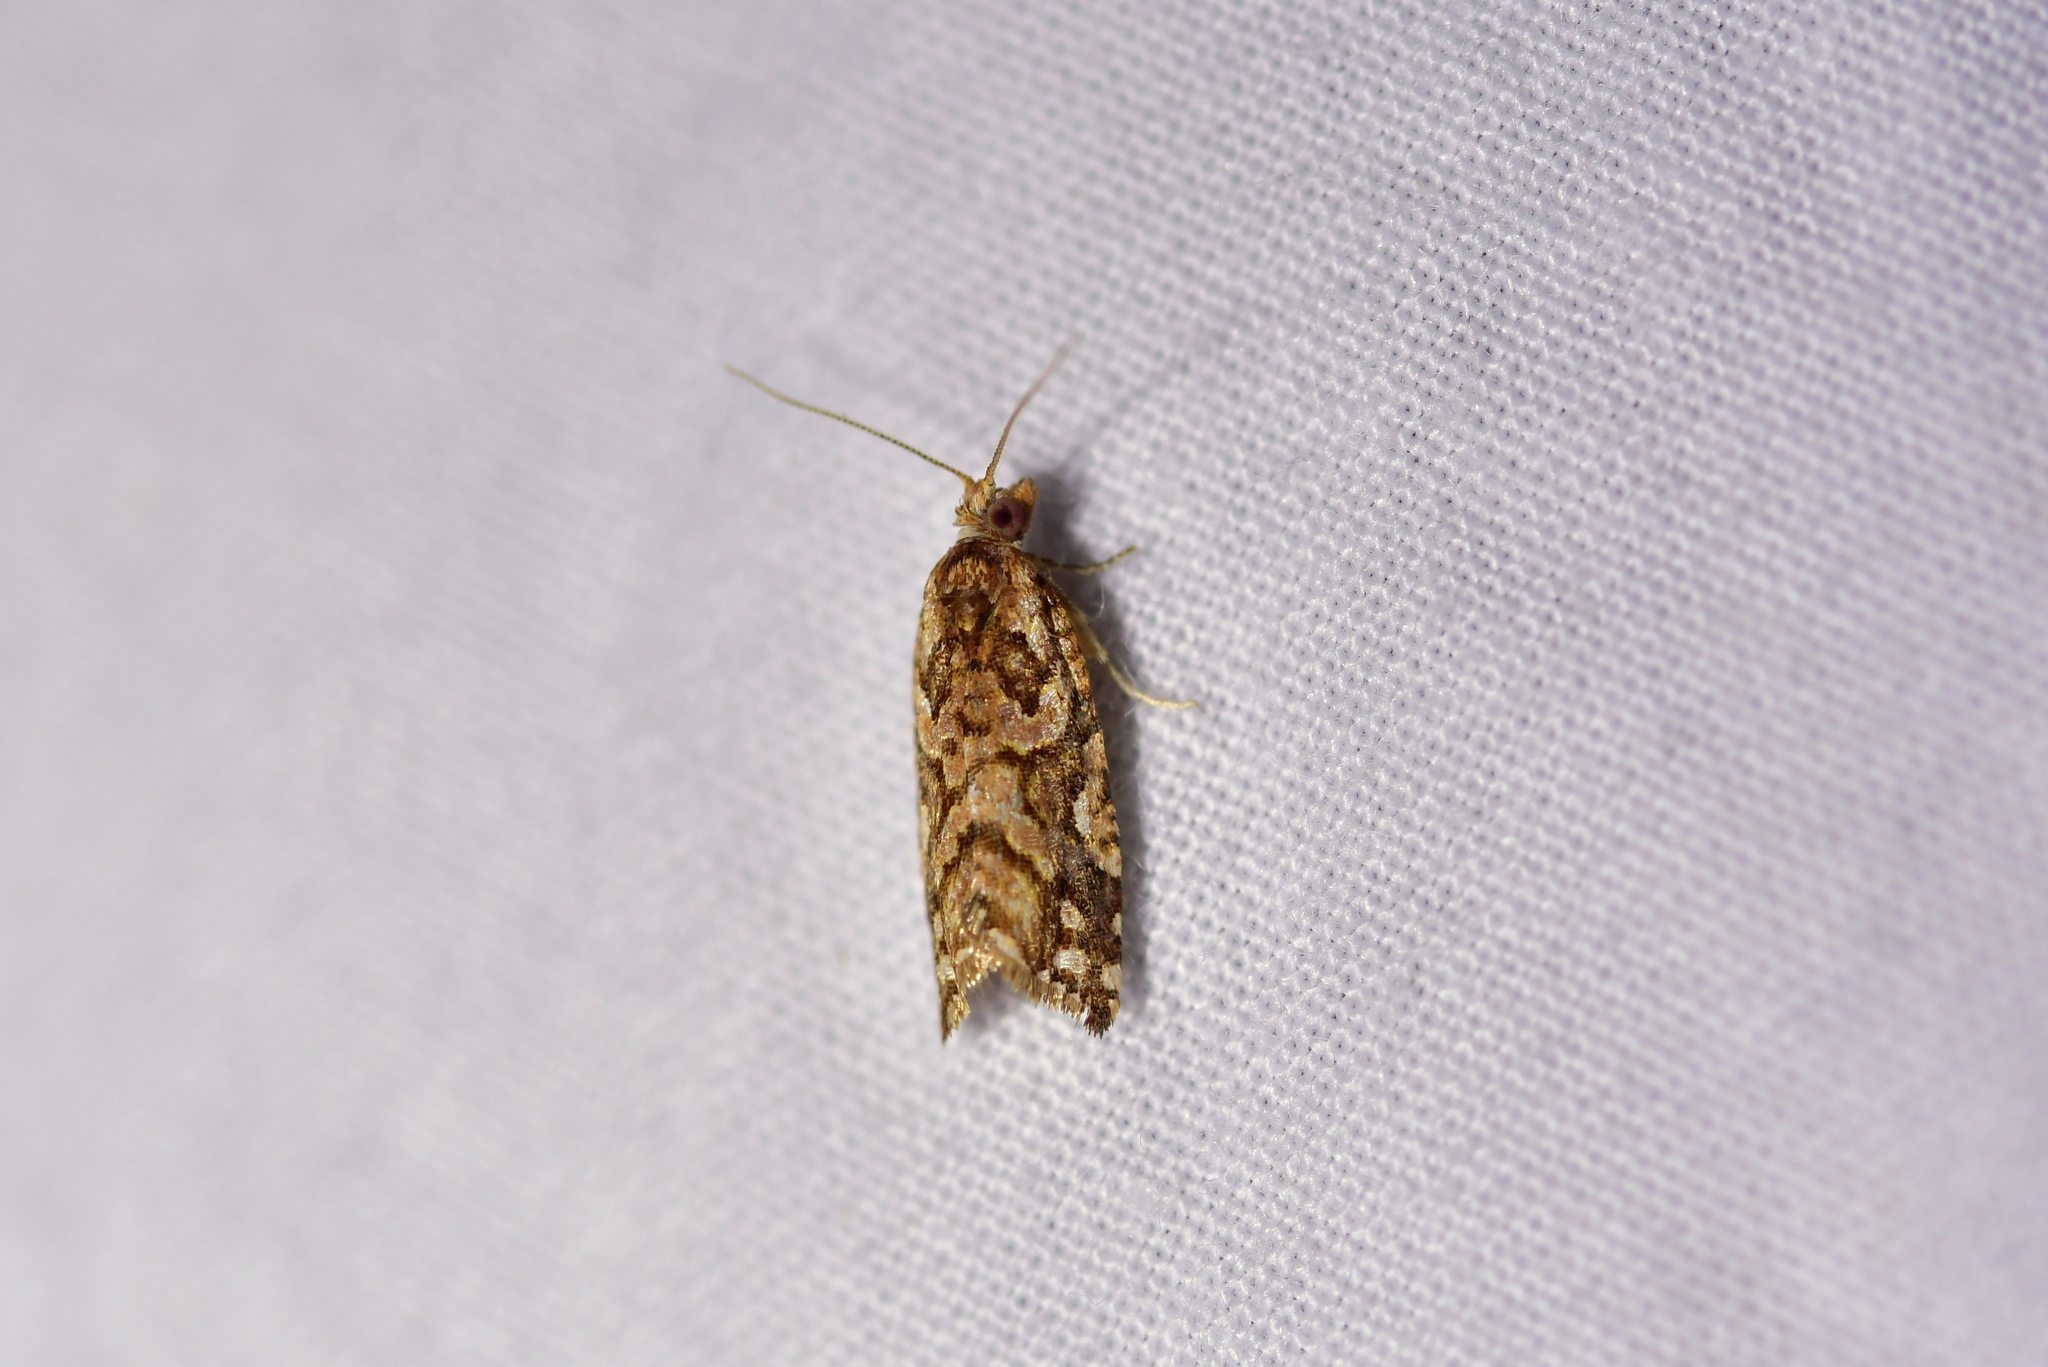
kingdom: Animalia
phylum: Arthropoda
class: Insecta
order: Lepidoptera
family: Tortricidae
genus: Pyrgotis
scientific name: Pyrgotis arcuata
